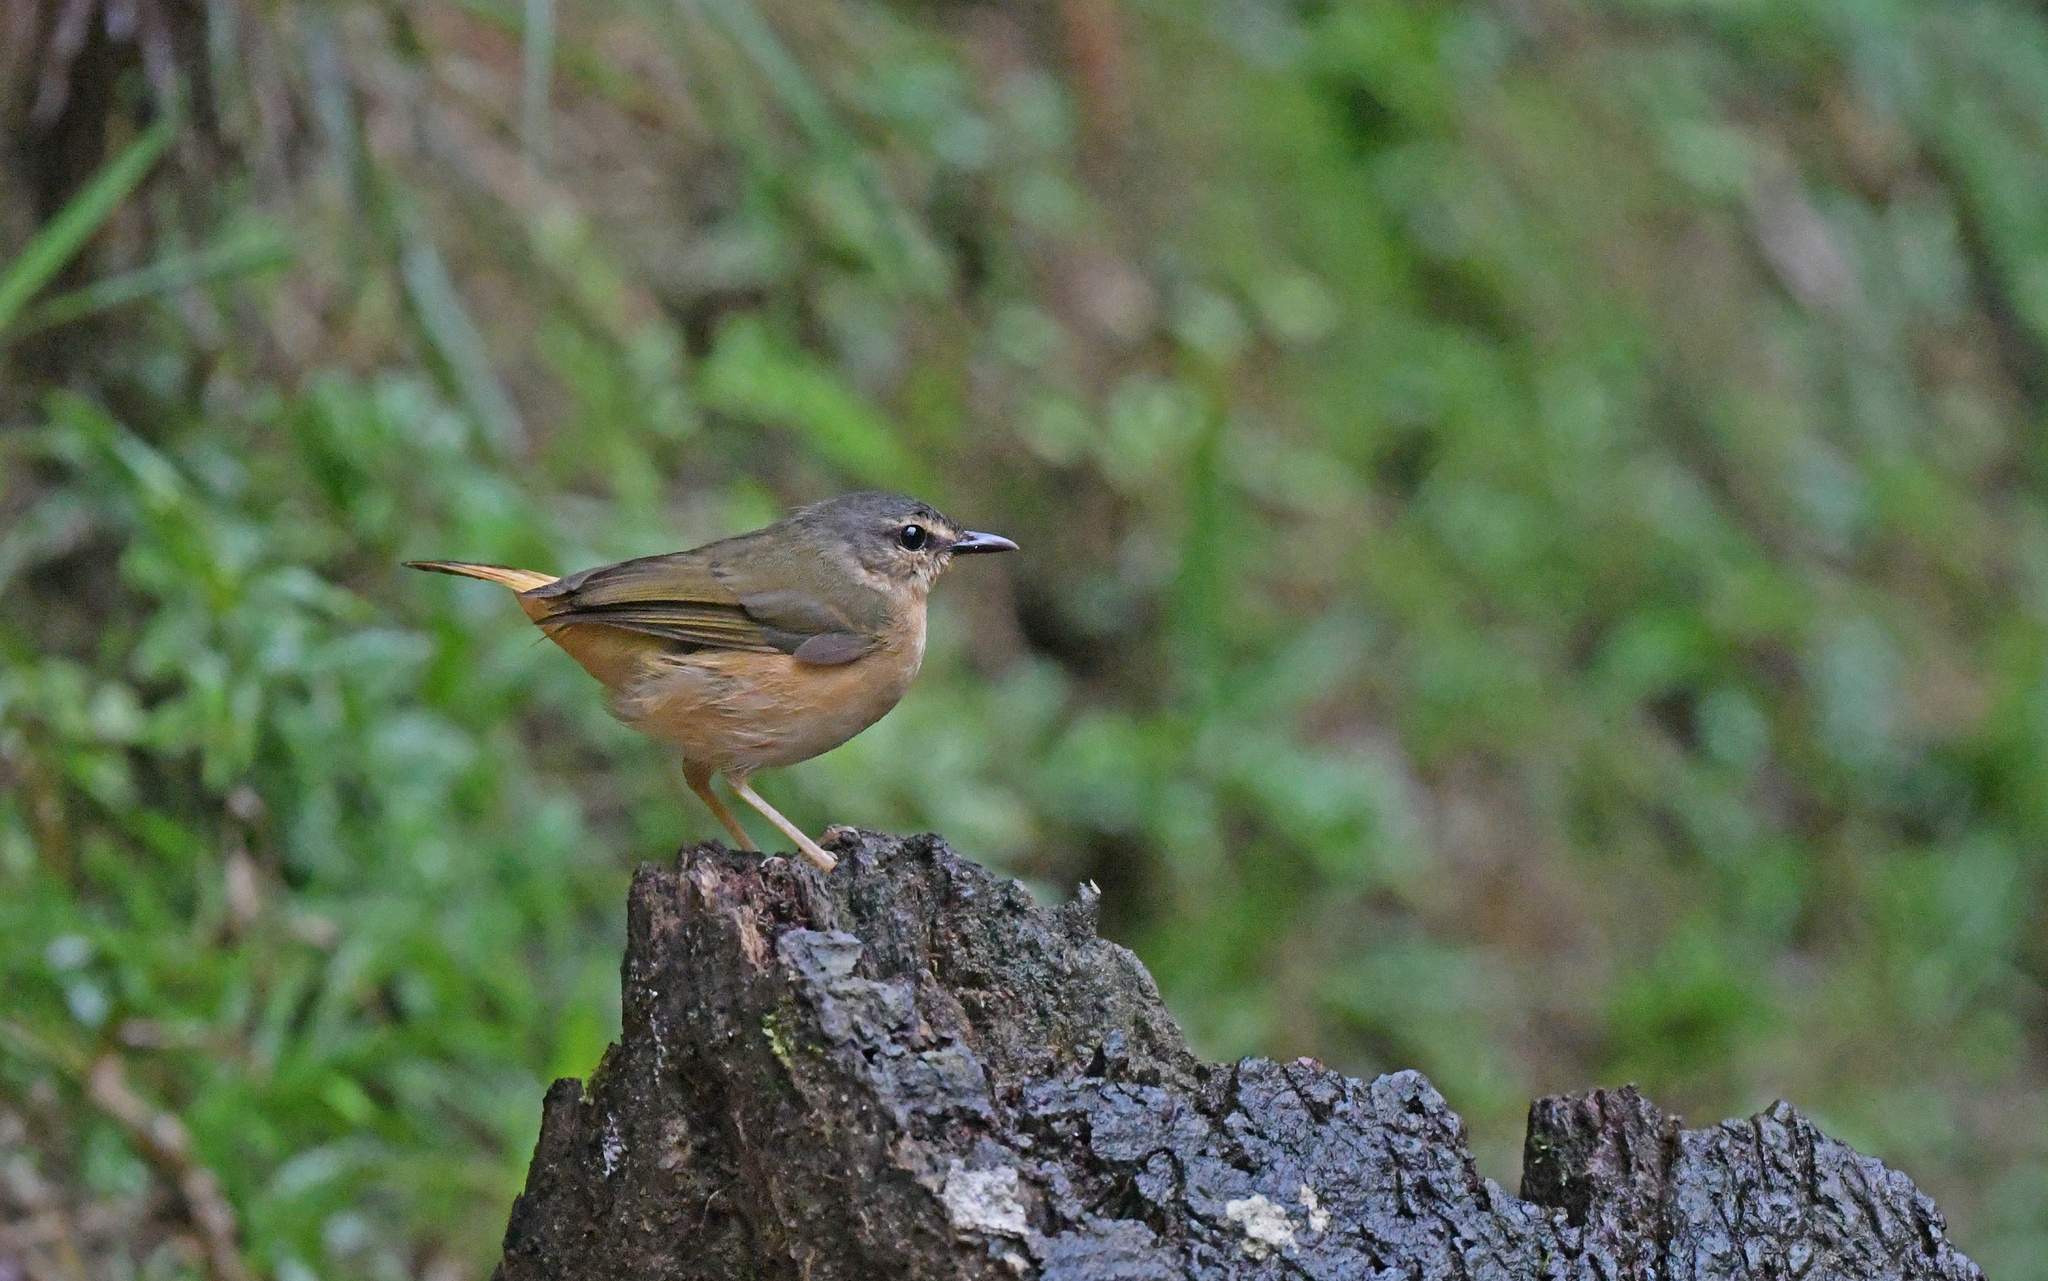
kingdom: Animalia
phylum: Chordata
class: Aves
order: Passeriformes
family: Parulidae
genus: Myiothlypis
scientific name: Myiothlypis fulvicauda
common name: Buff-rumped warbler
